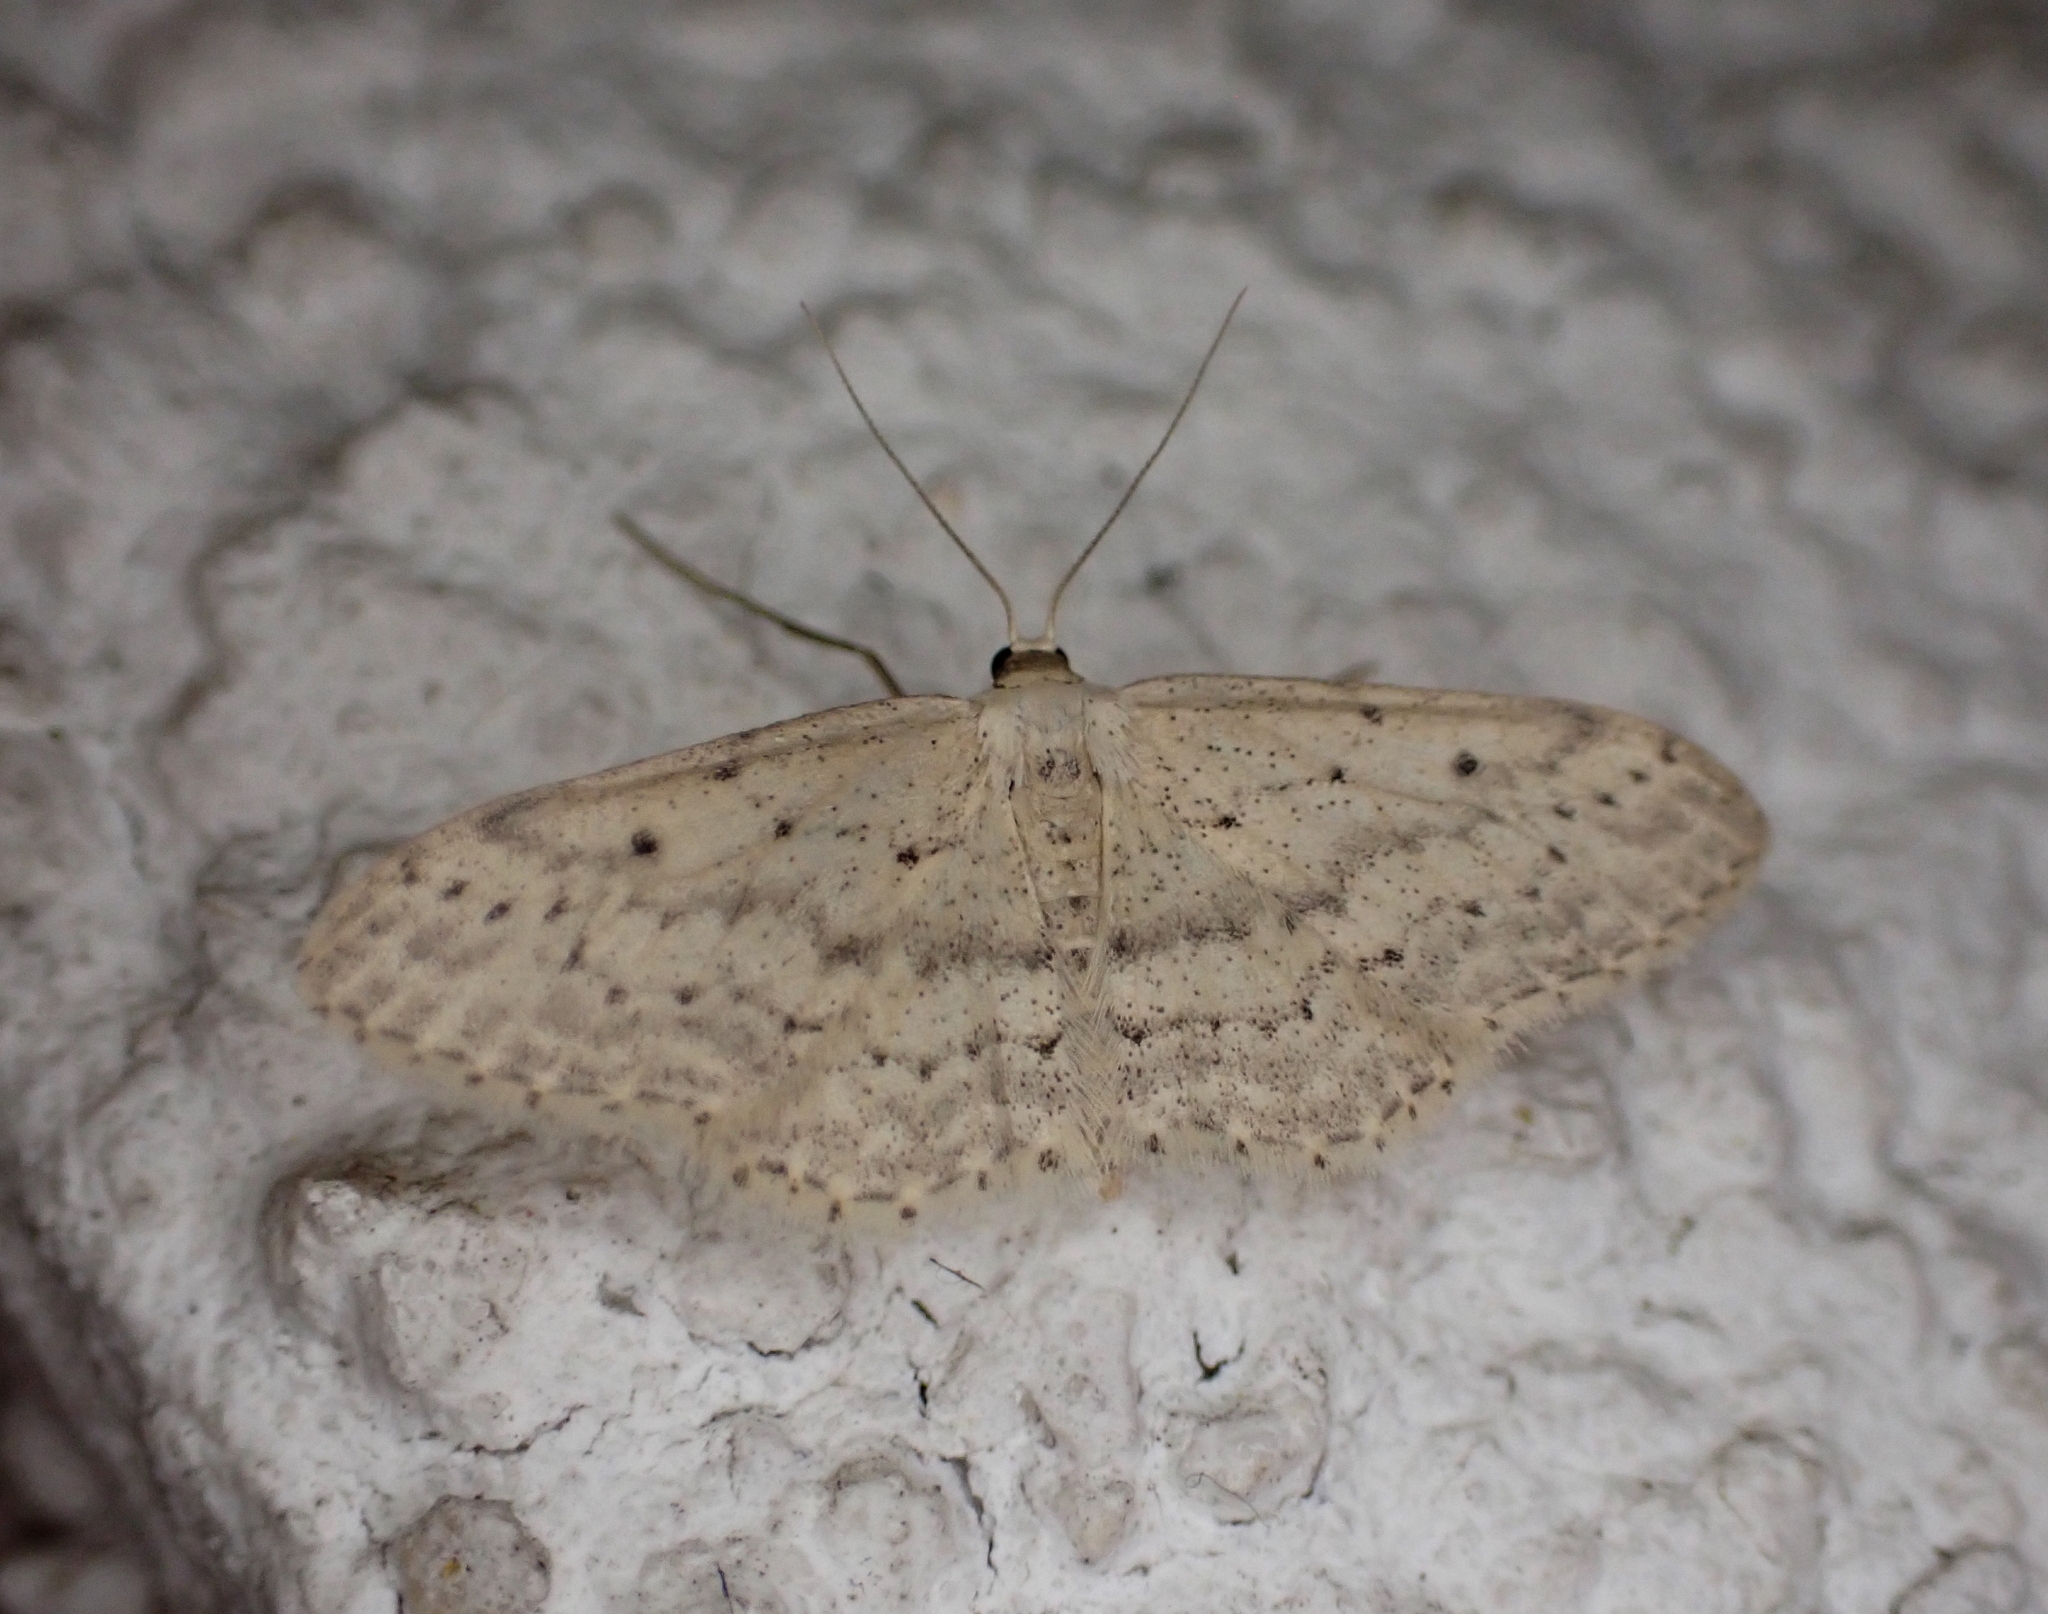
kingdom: Animalia
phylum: Arthropoda
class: Insecta
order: Lepidoptera
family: Geometridae
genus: Idaea
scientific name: Idaea seriata
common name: Small dusty wave
